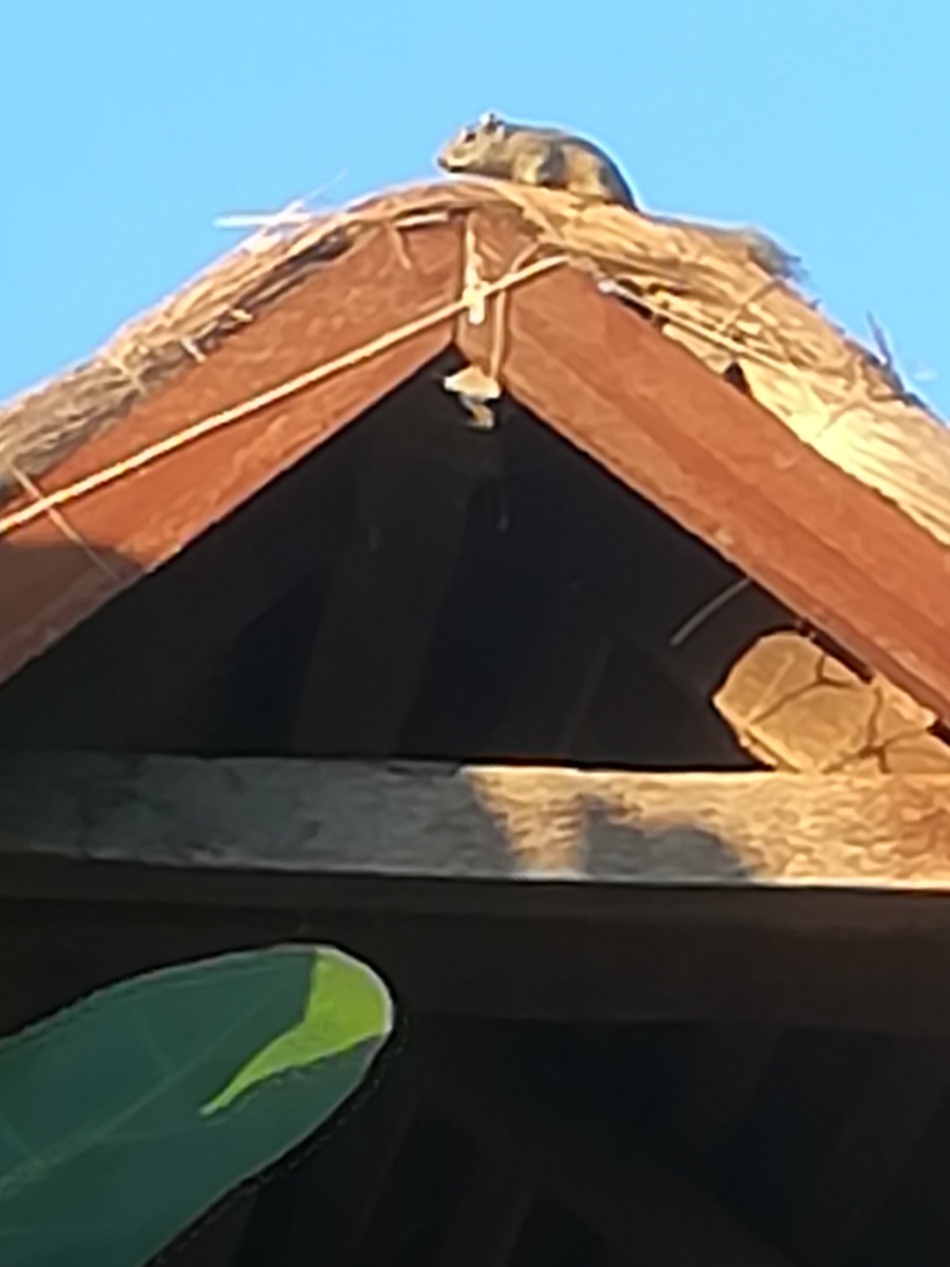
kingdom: Animalia
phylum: Chordata
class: Mammalia
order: Rodentia
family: Sciuridae
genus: Funambulus
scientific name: Funambulus palmarum
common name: Indian palm squirrel
